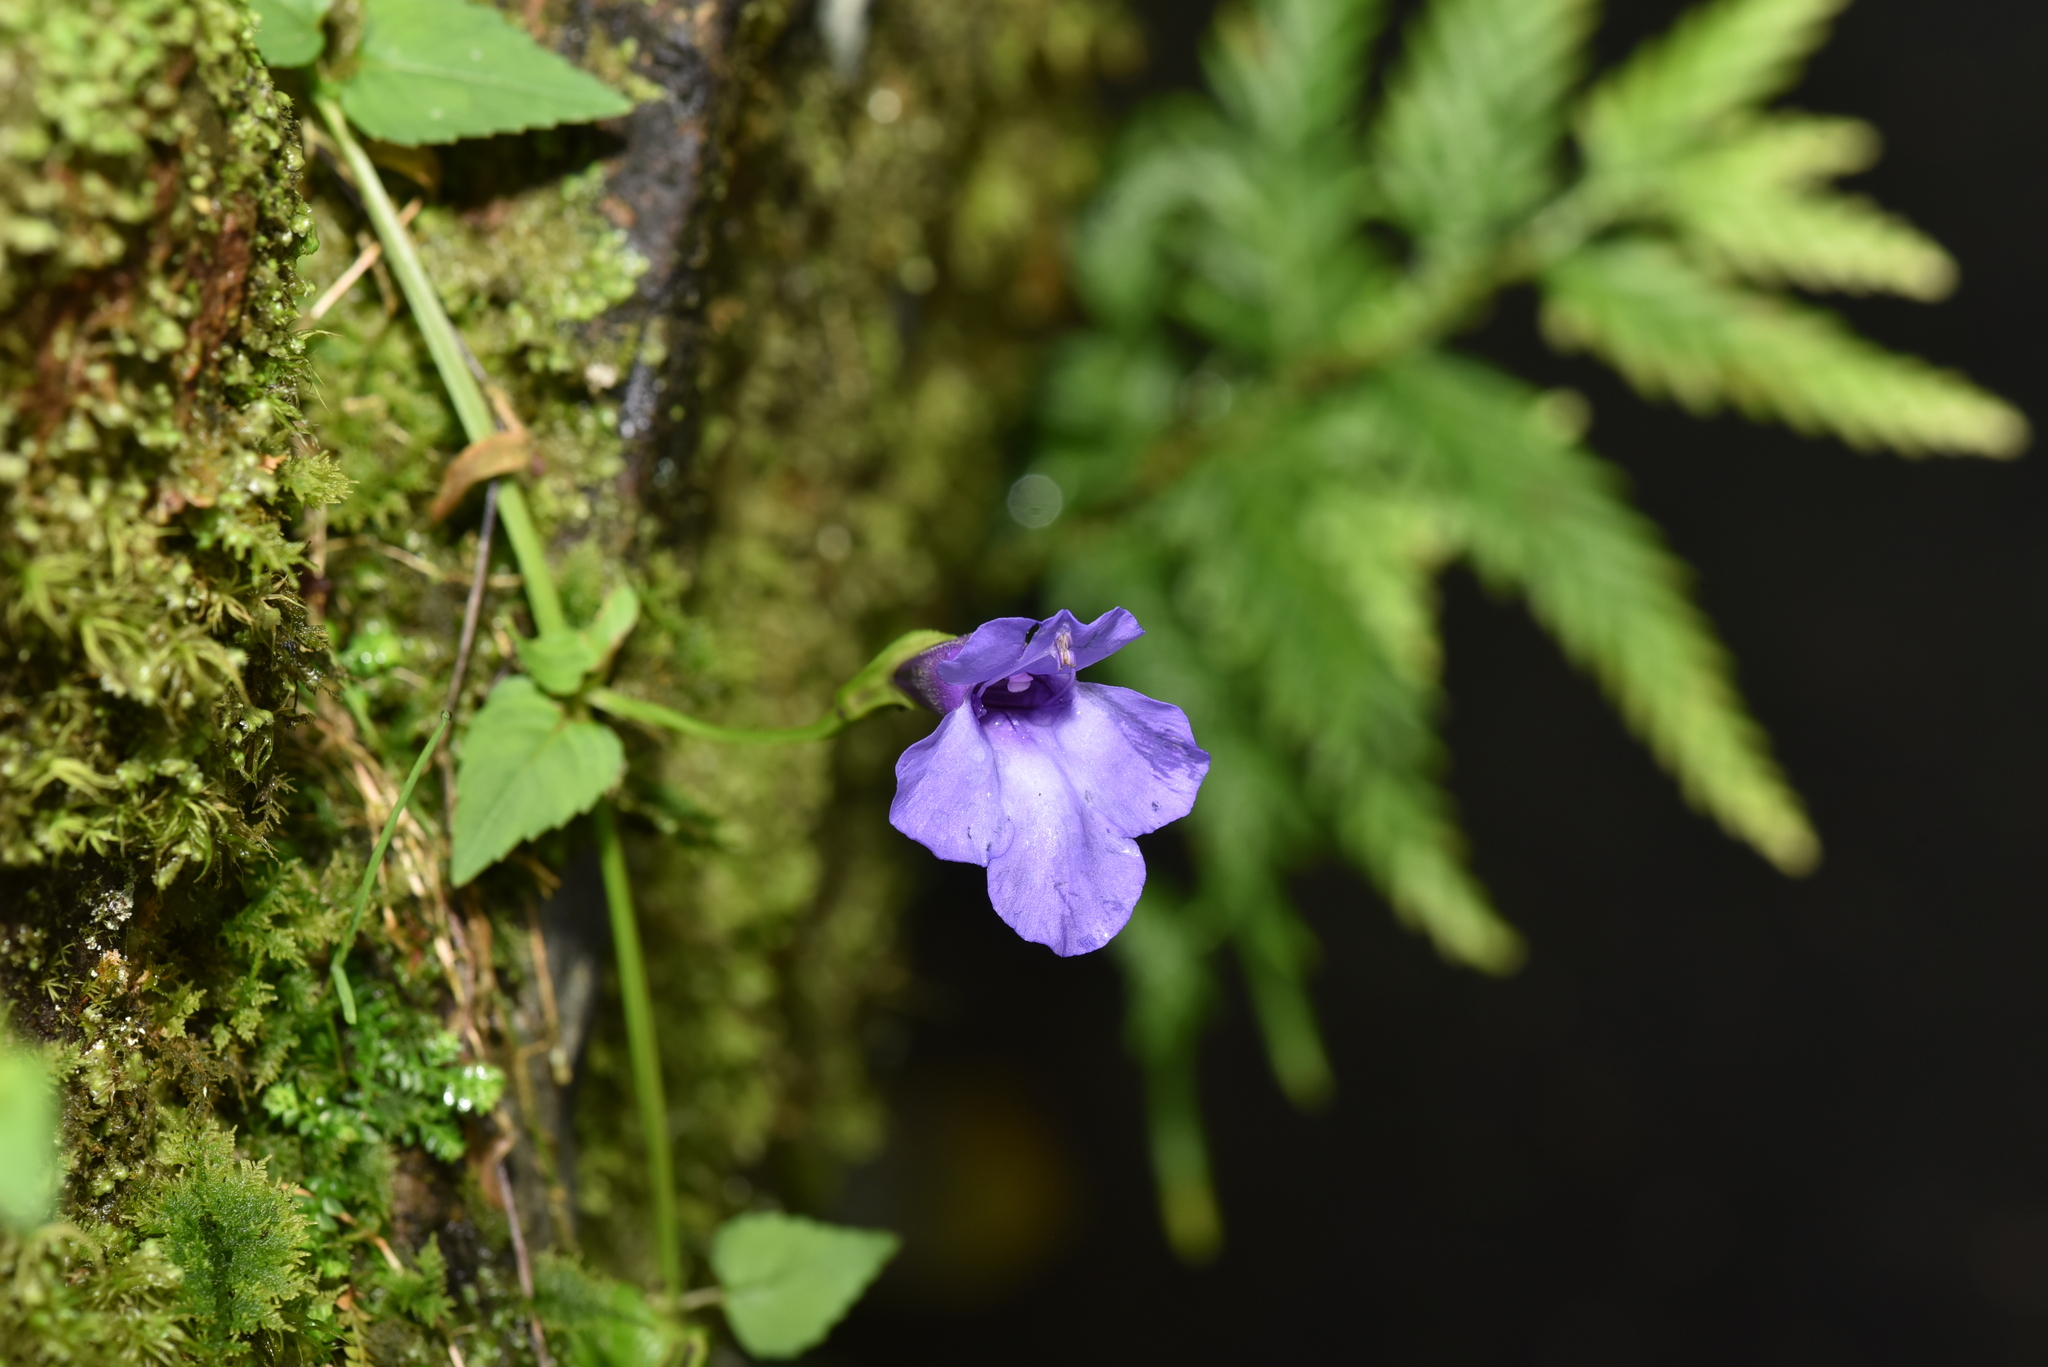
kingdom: Plantae
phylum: Tracheophyta
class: Magnoliopsida
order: Lamiales
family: Linderniaceae
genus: Torenia
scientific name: Torenia concolor
